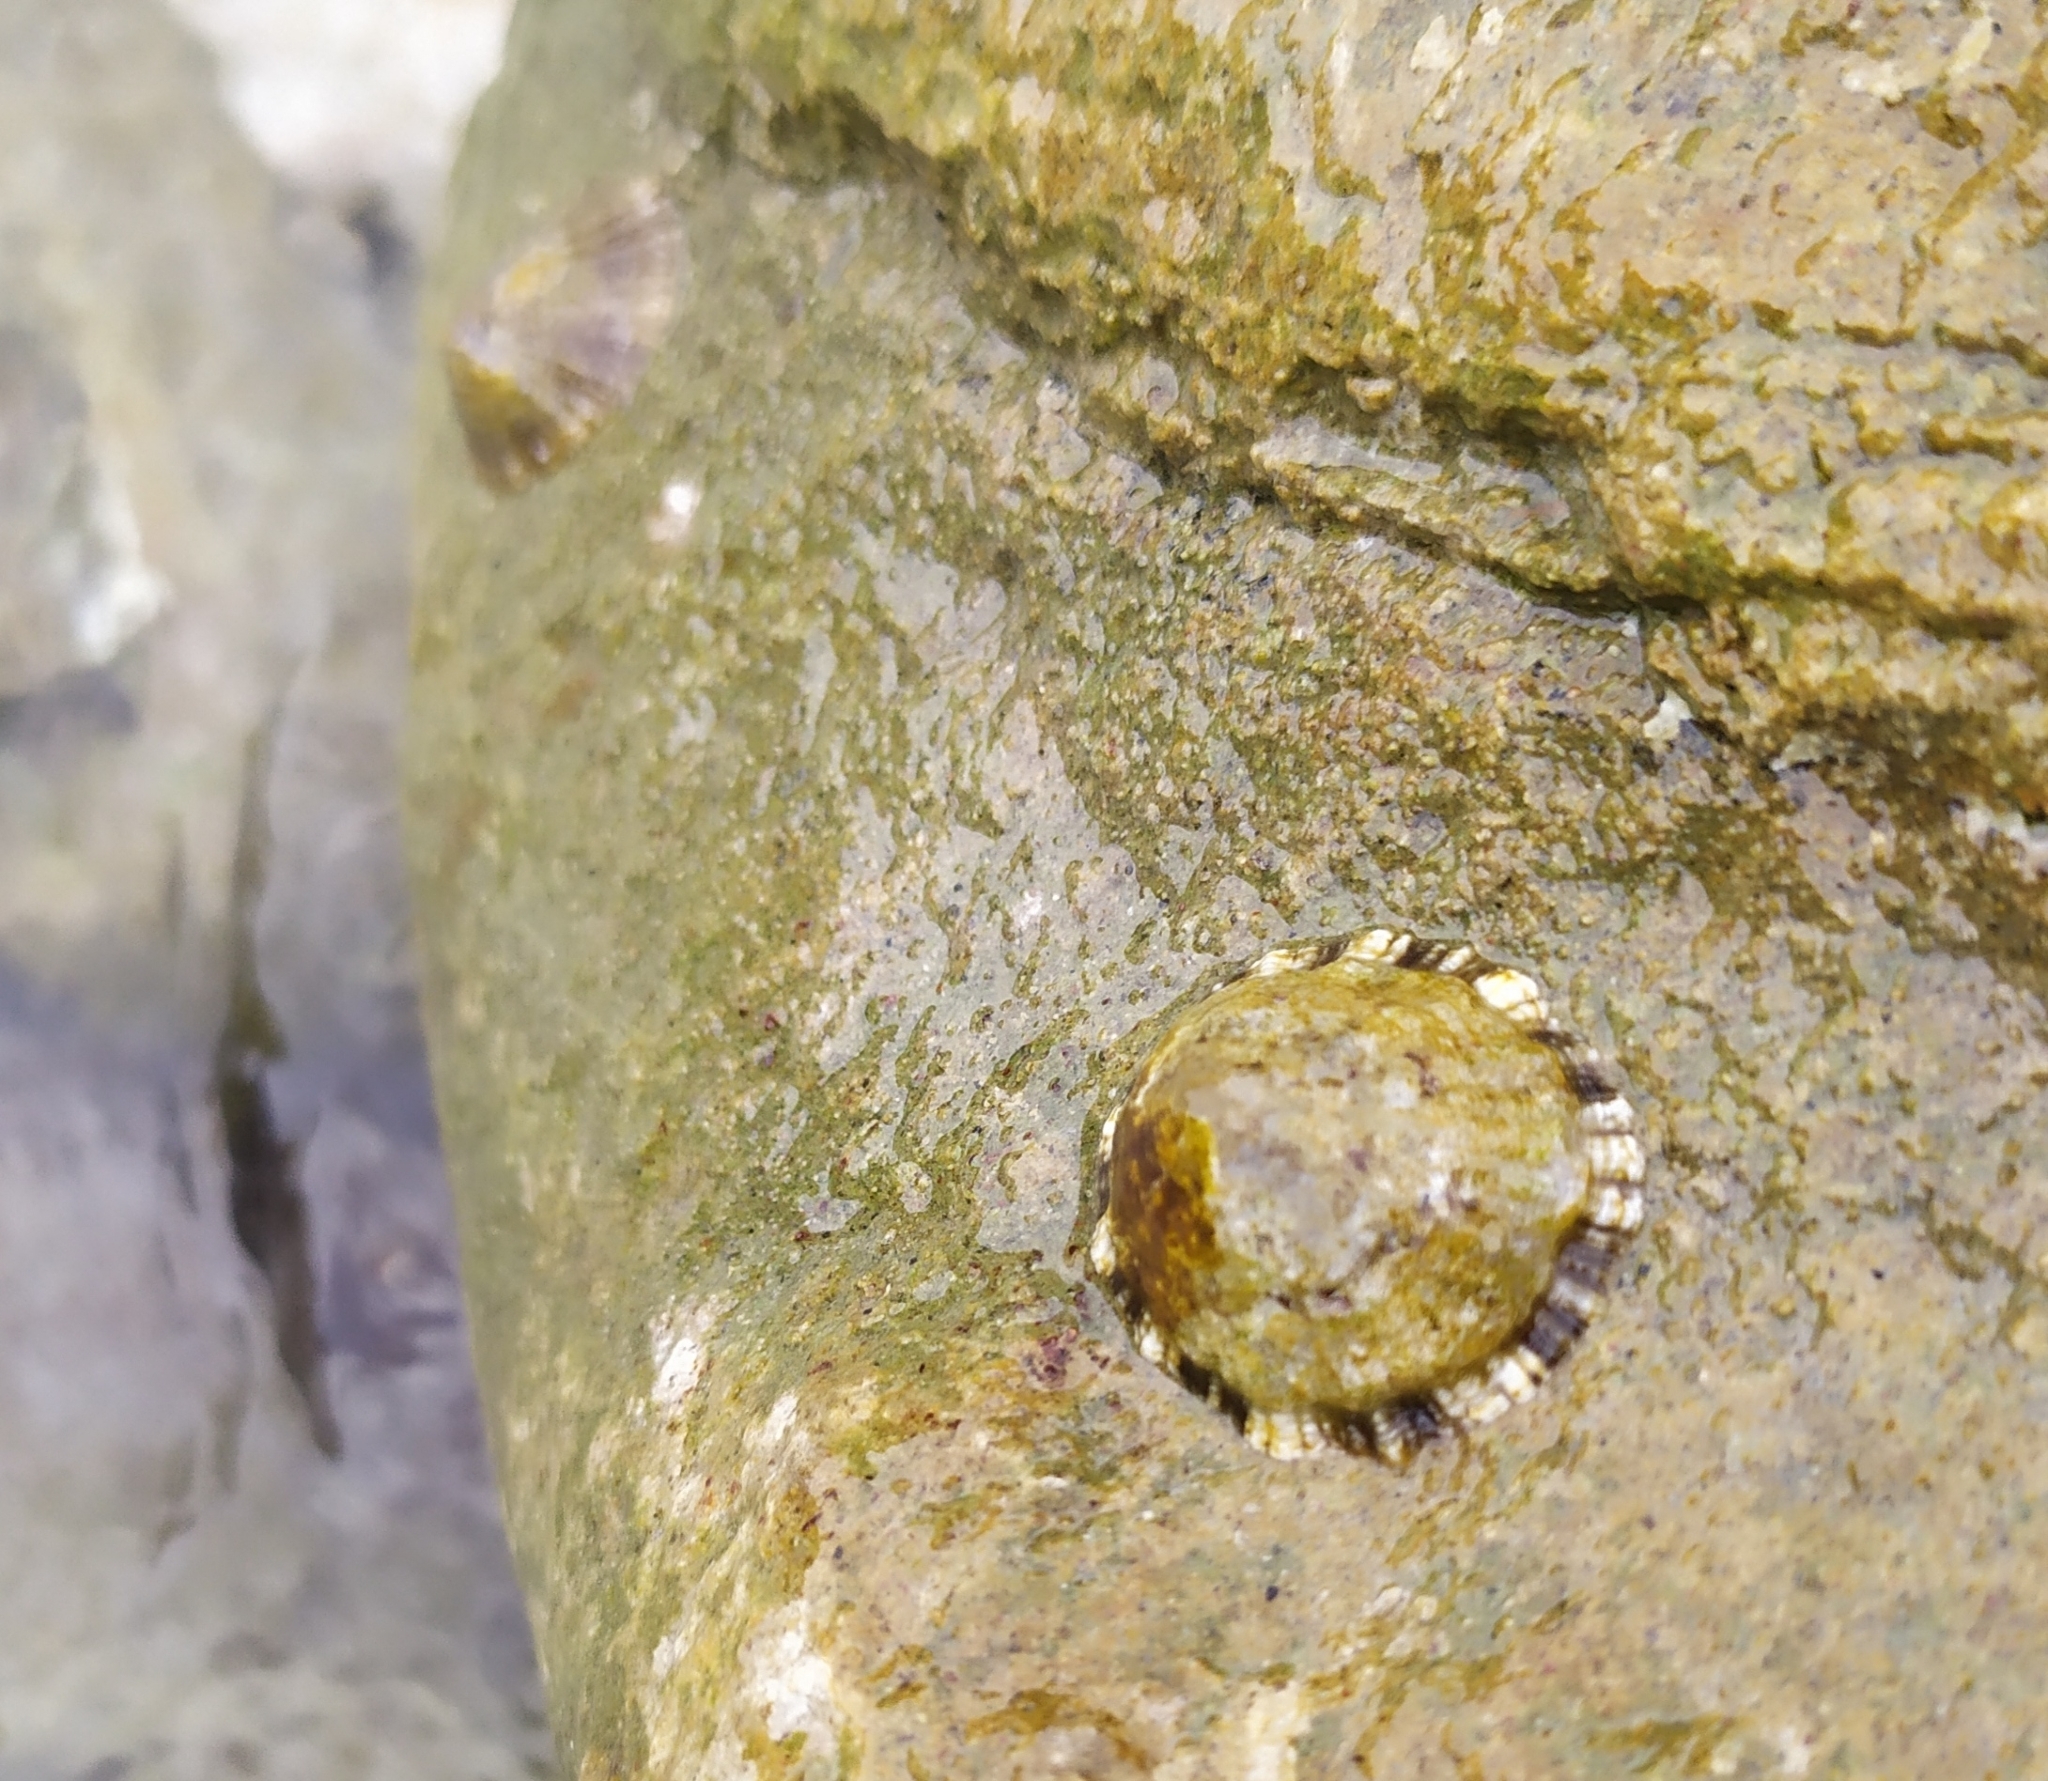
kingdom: Animalia
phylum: Mollusca
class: Gastropoda
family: Patellidae
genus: Patella
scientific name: Patella caerulea
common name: Mediterranean limpet
